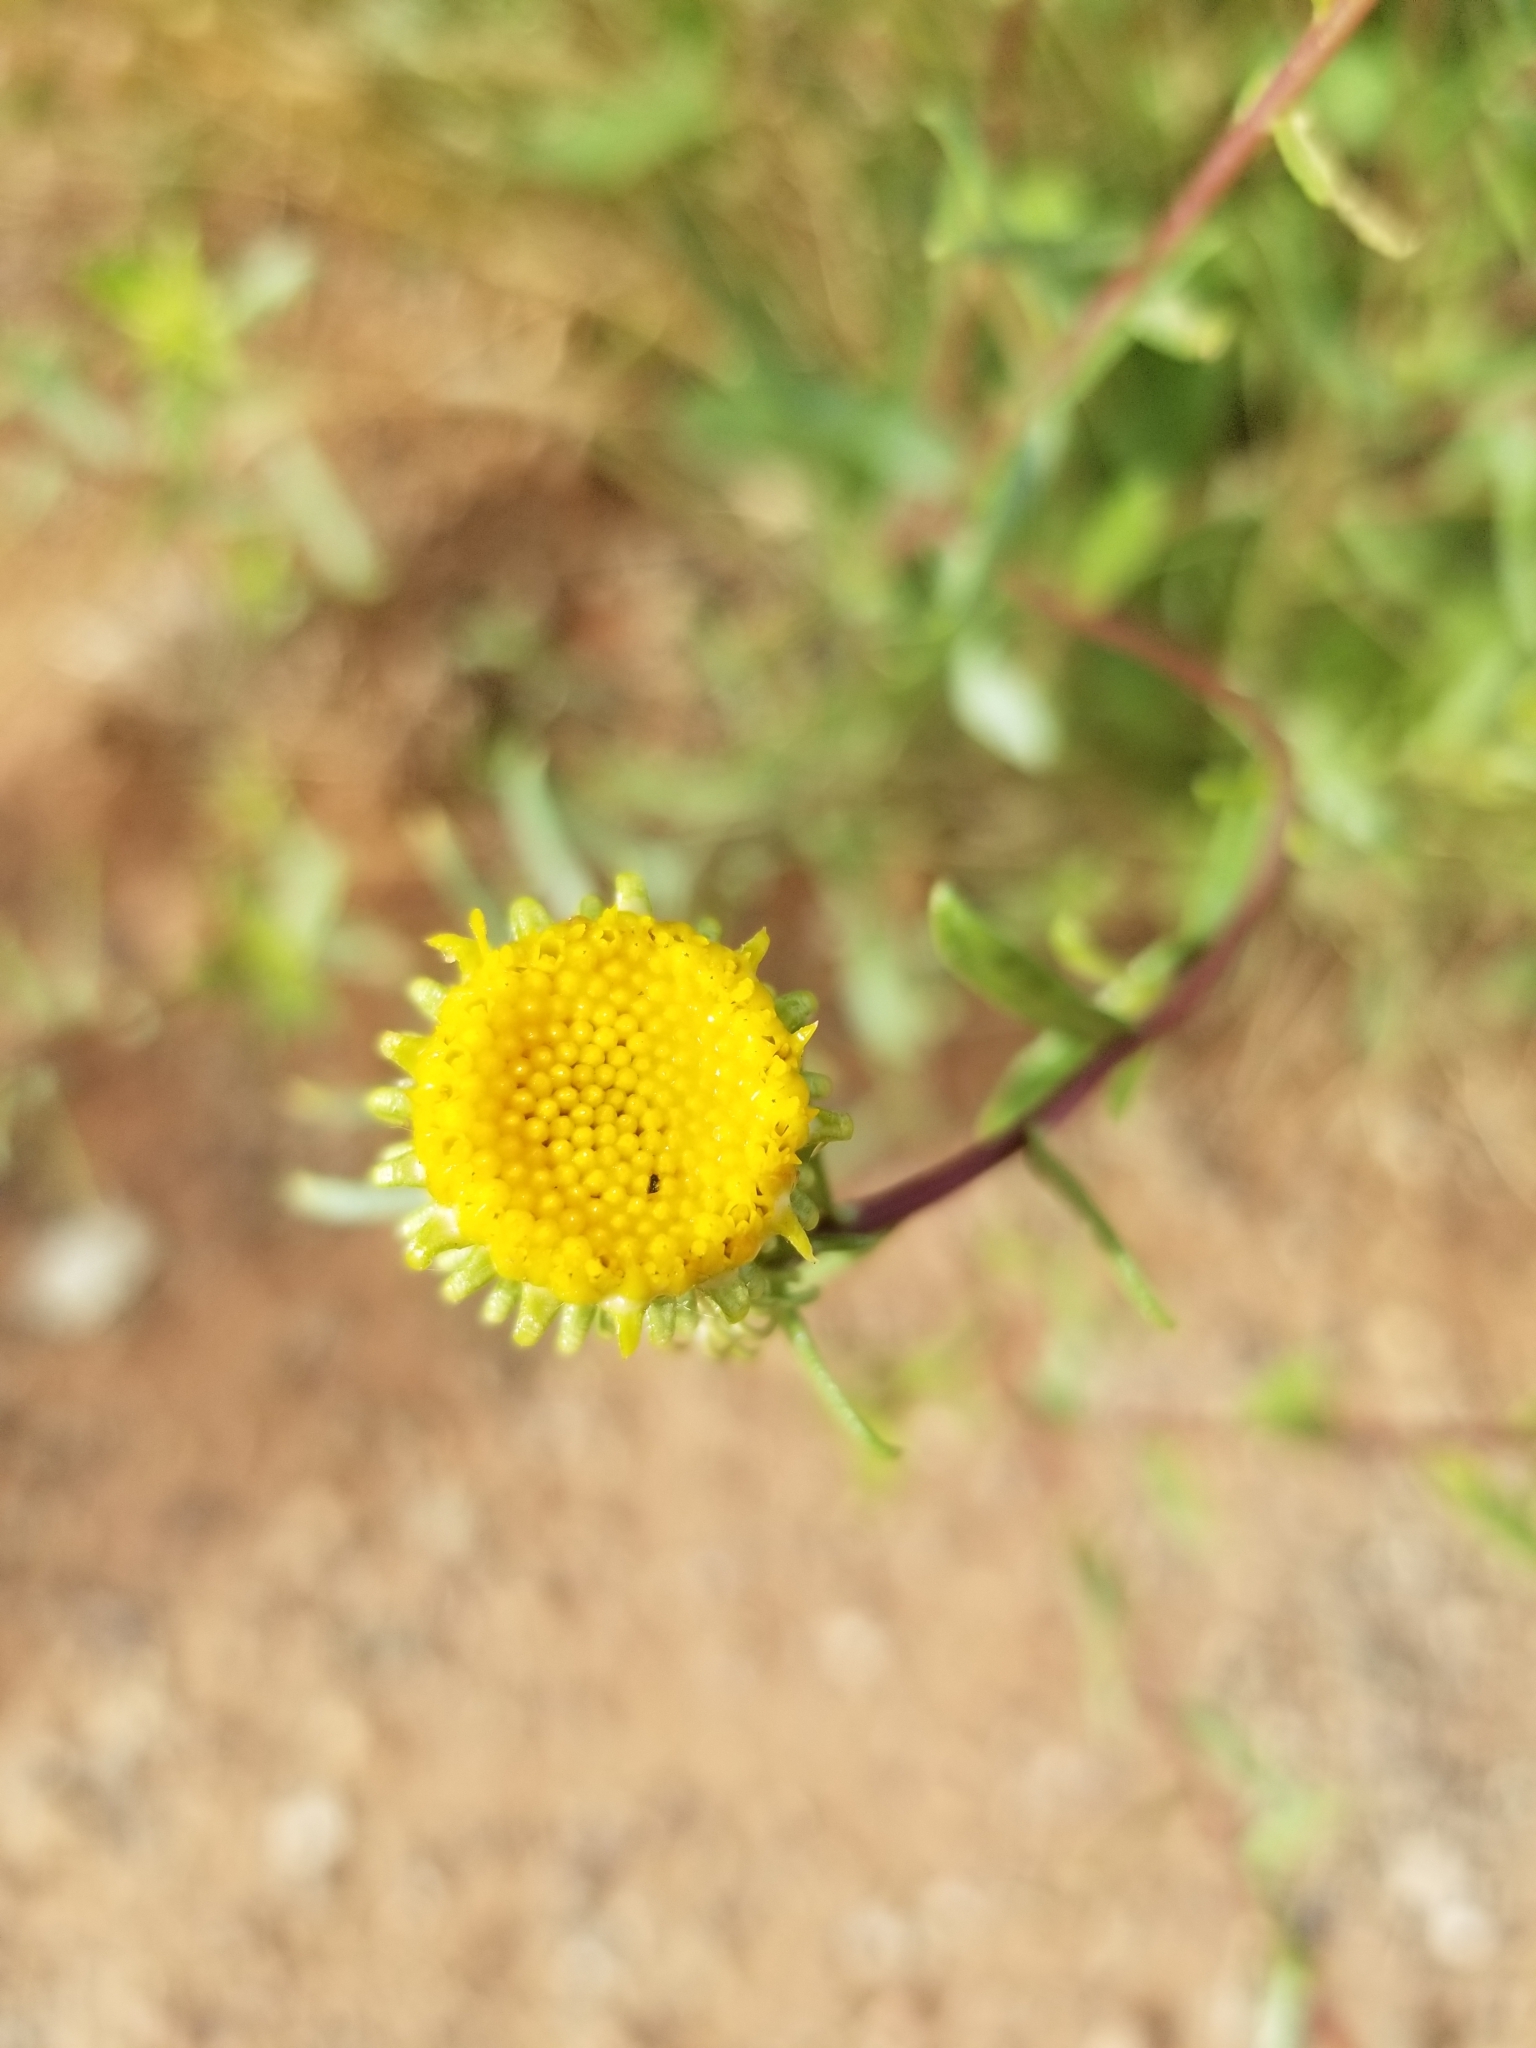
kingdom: Plantae
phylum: Tracheophyta
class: Magnoliopsida
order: Asterales
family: Asteraceae
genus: Grindelia
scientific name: Grindelia squarrosa
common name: Curly-cup gumweed
